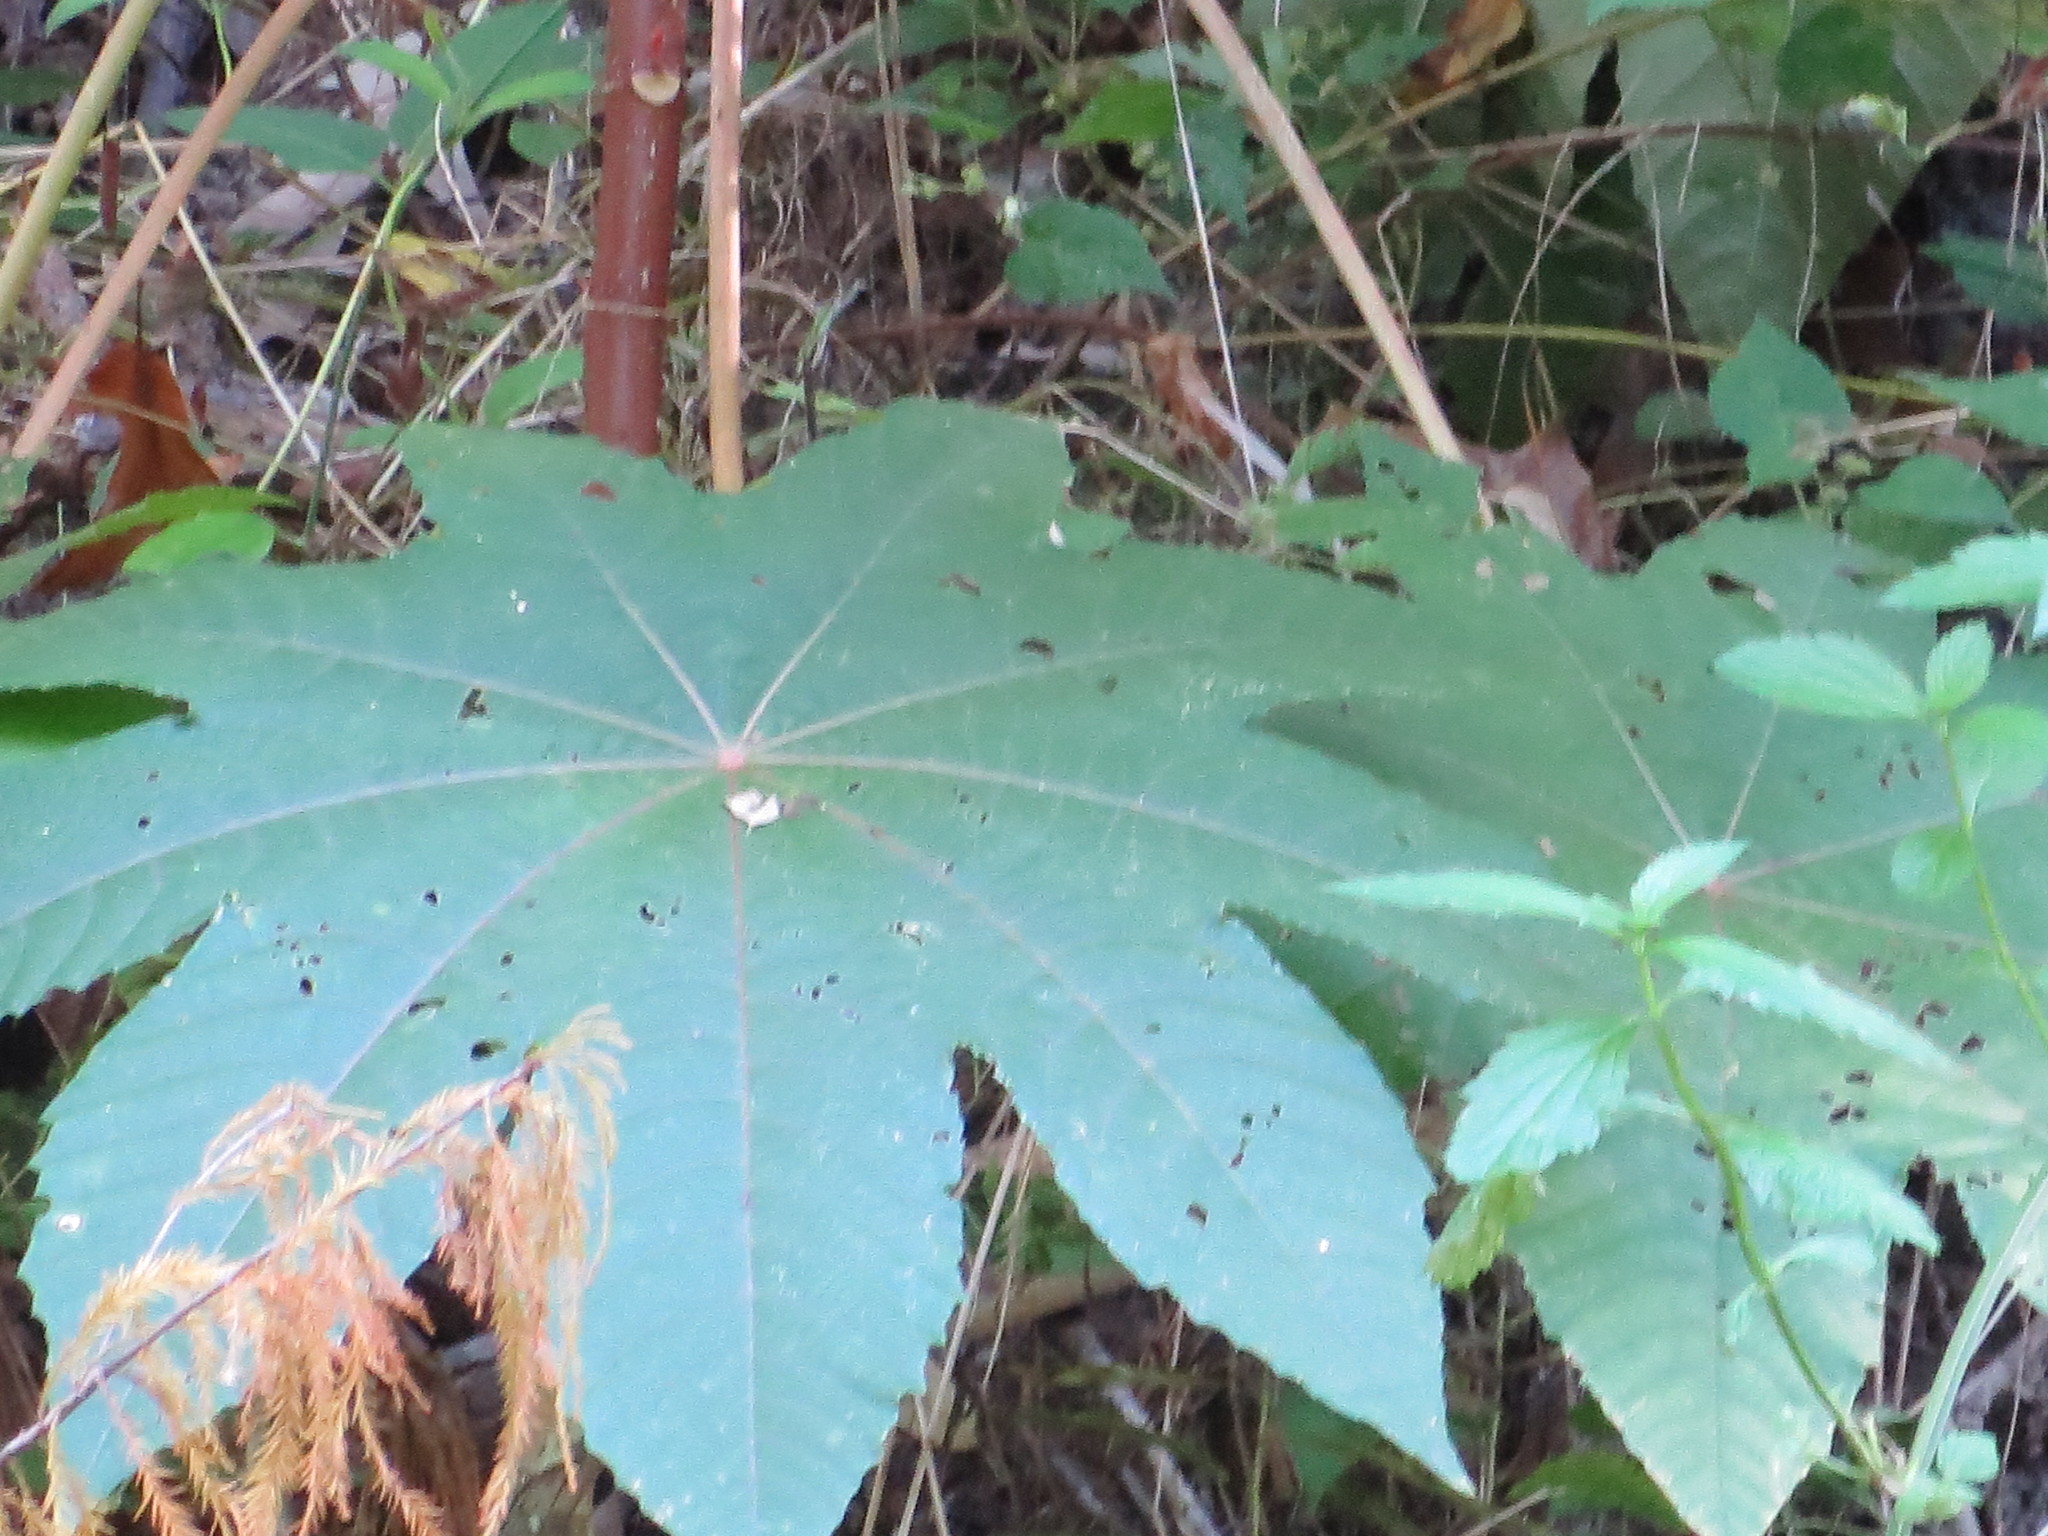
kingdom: Plantae
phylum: Tracheophyta
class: Magnoliopsida
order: Malpighiales
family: Euphorbiaceae
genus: Ricinus
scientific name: Ricinus communis
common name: Castor-oil-plant
